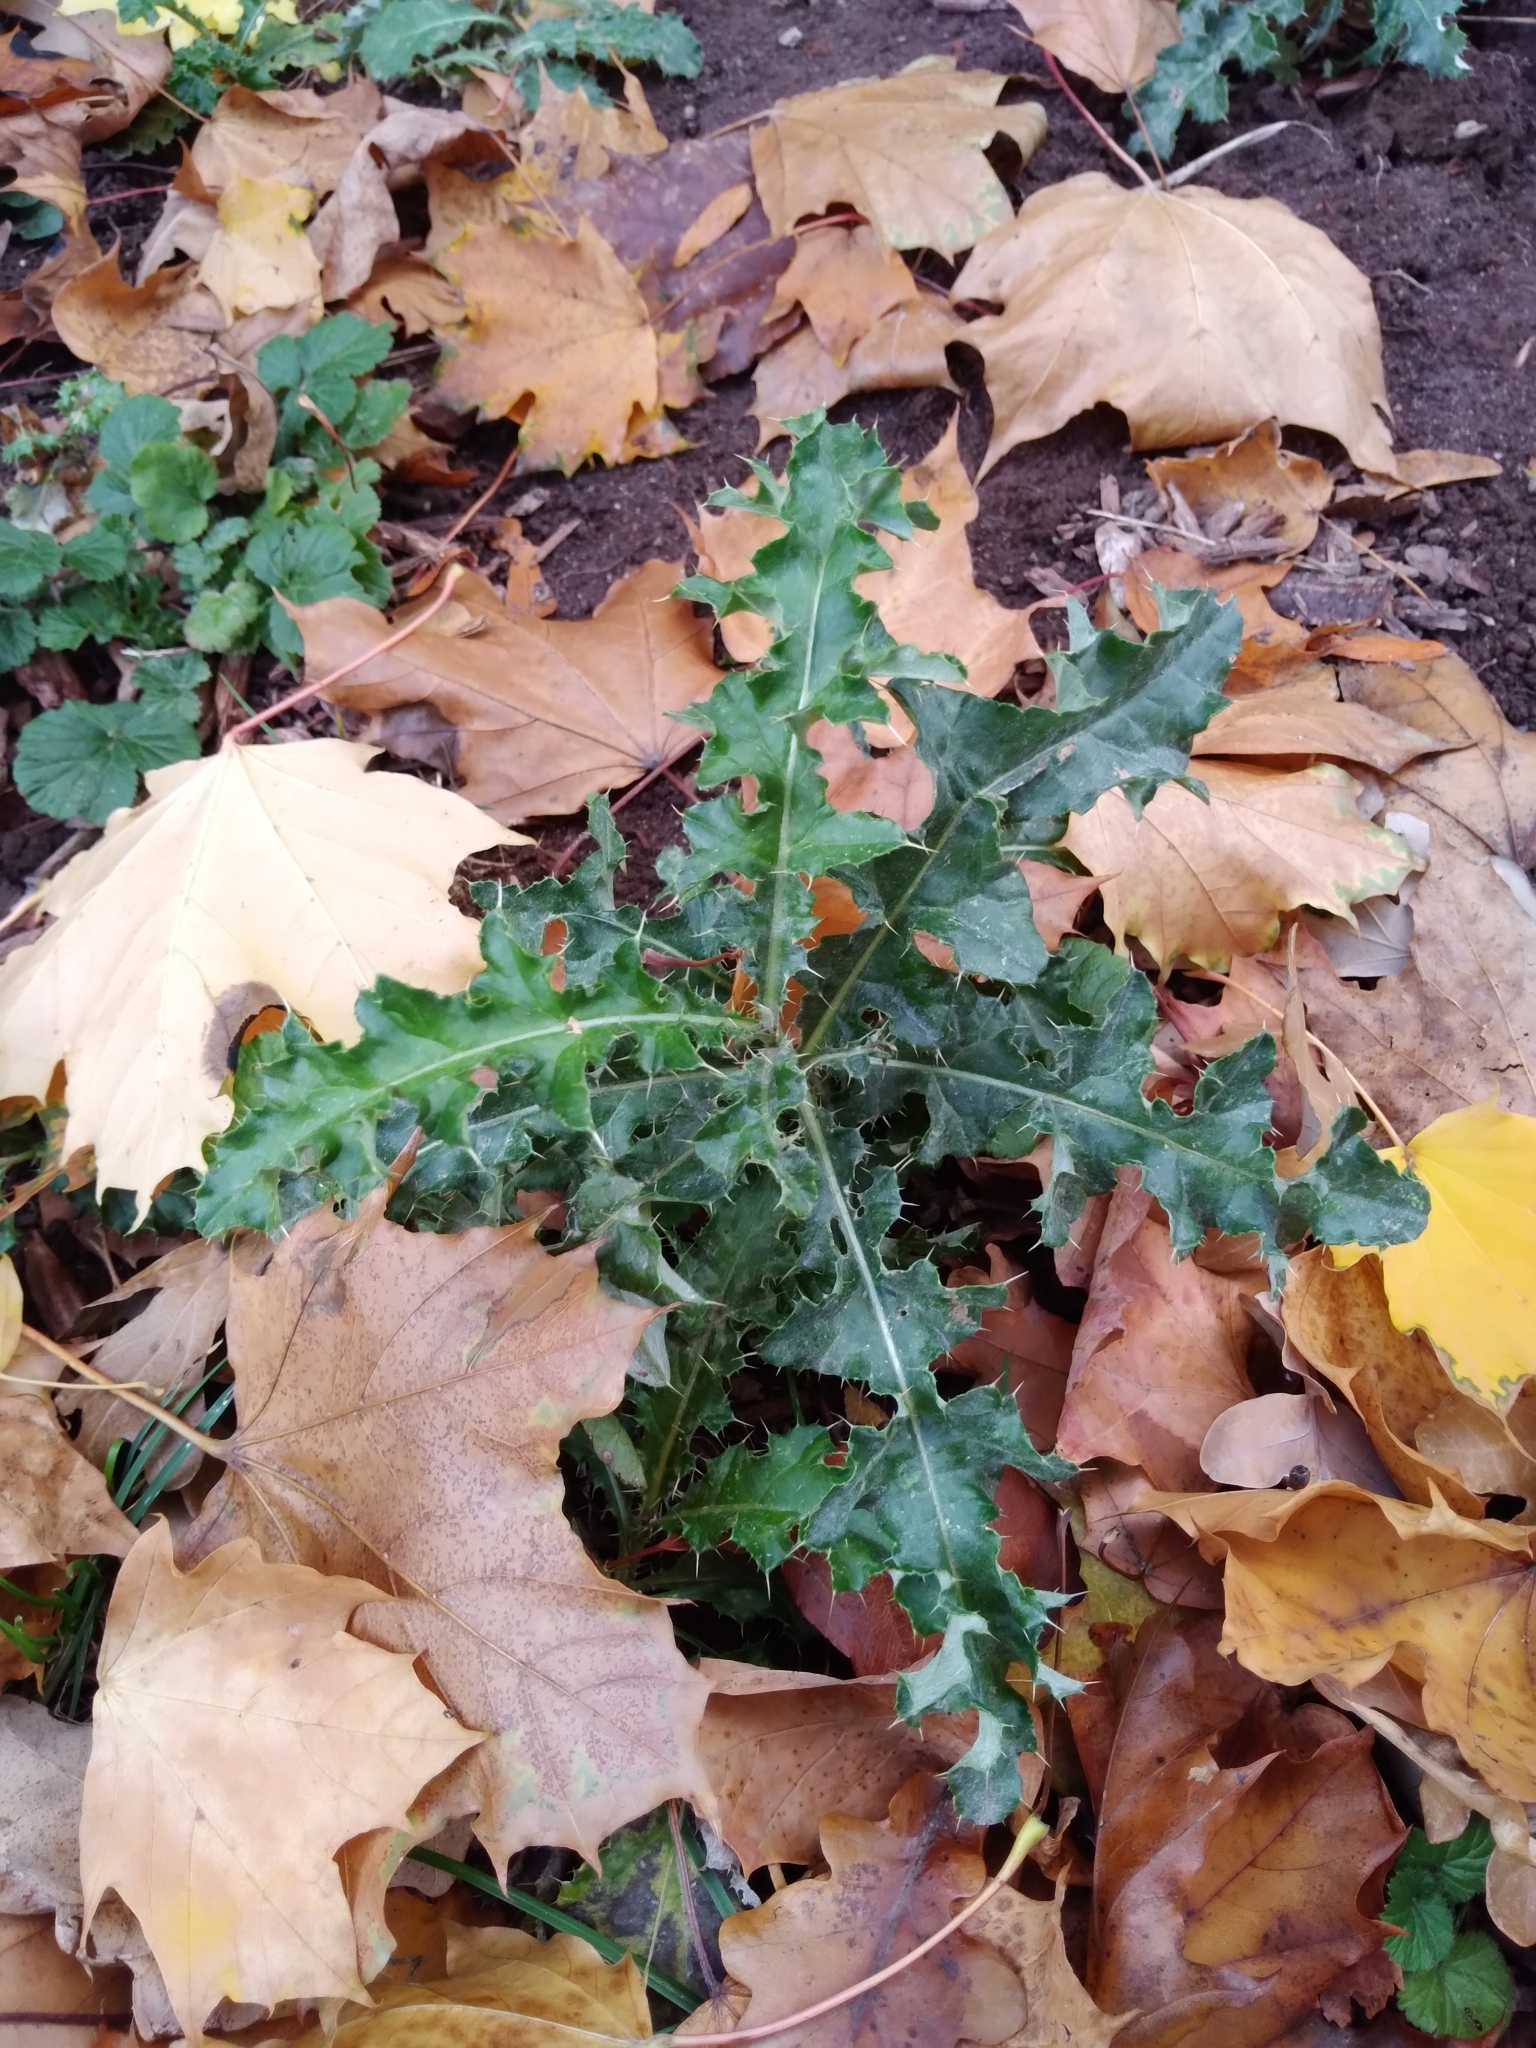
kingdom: Plantae
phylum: Tracheophyta
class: Magnoliopsida
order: Asterales
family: Asteraceae
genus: Cirsium
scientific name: Cirsium arvense
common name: Creeping thistle
